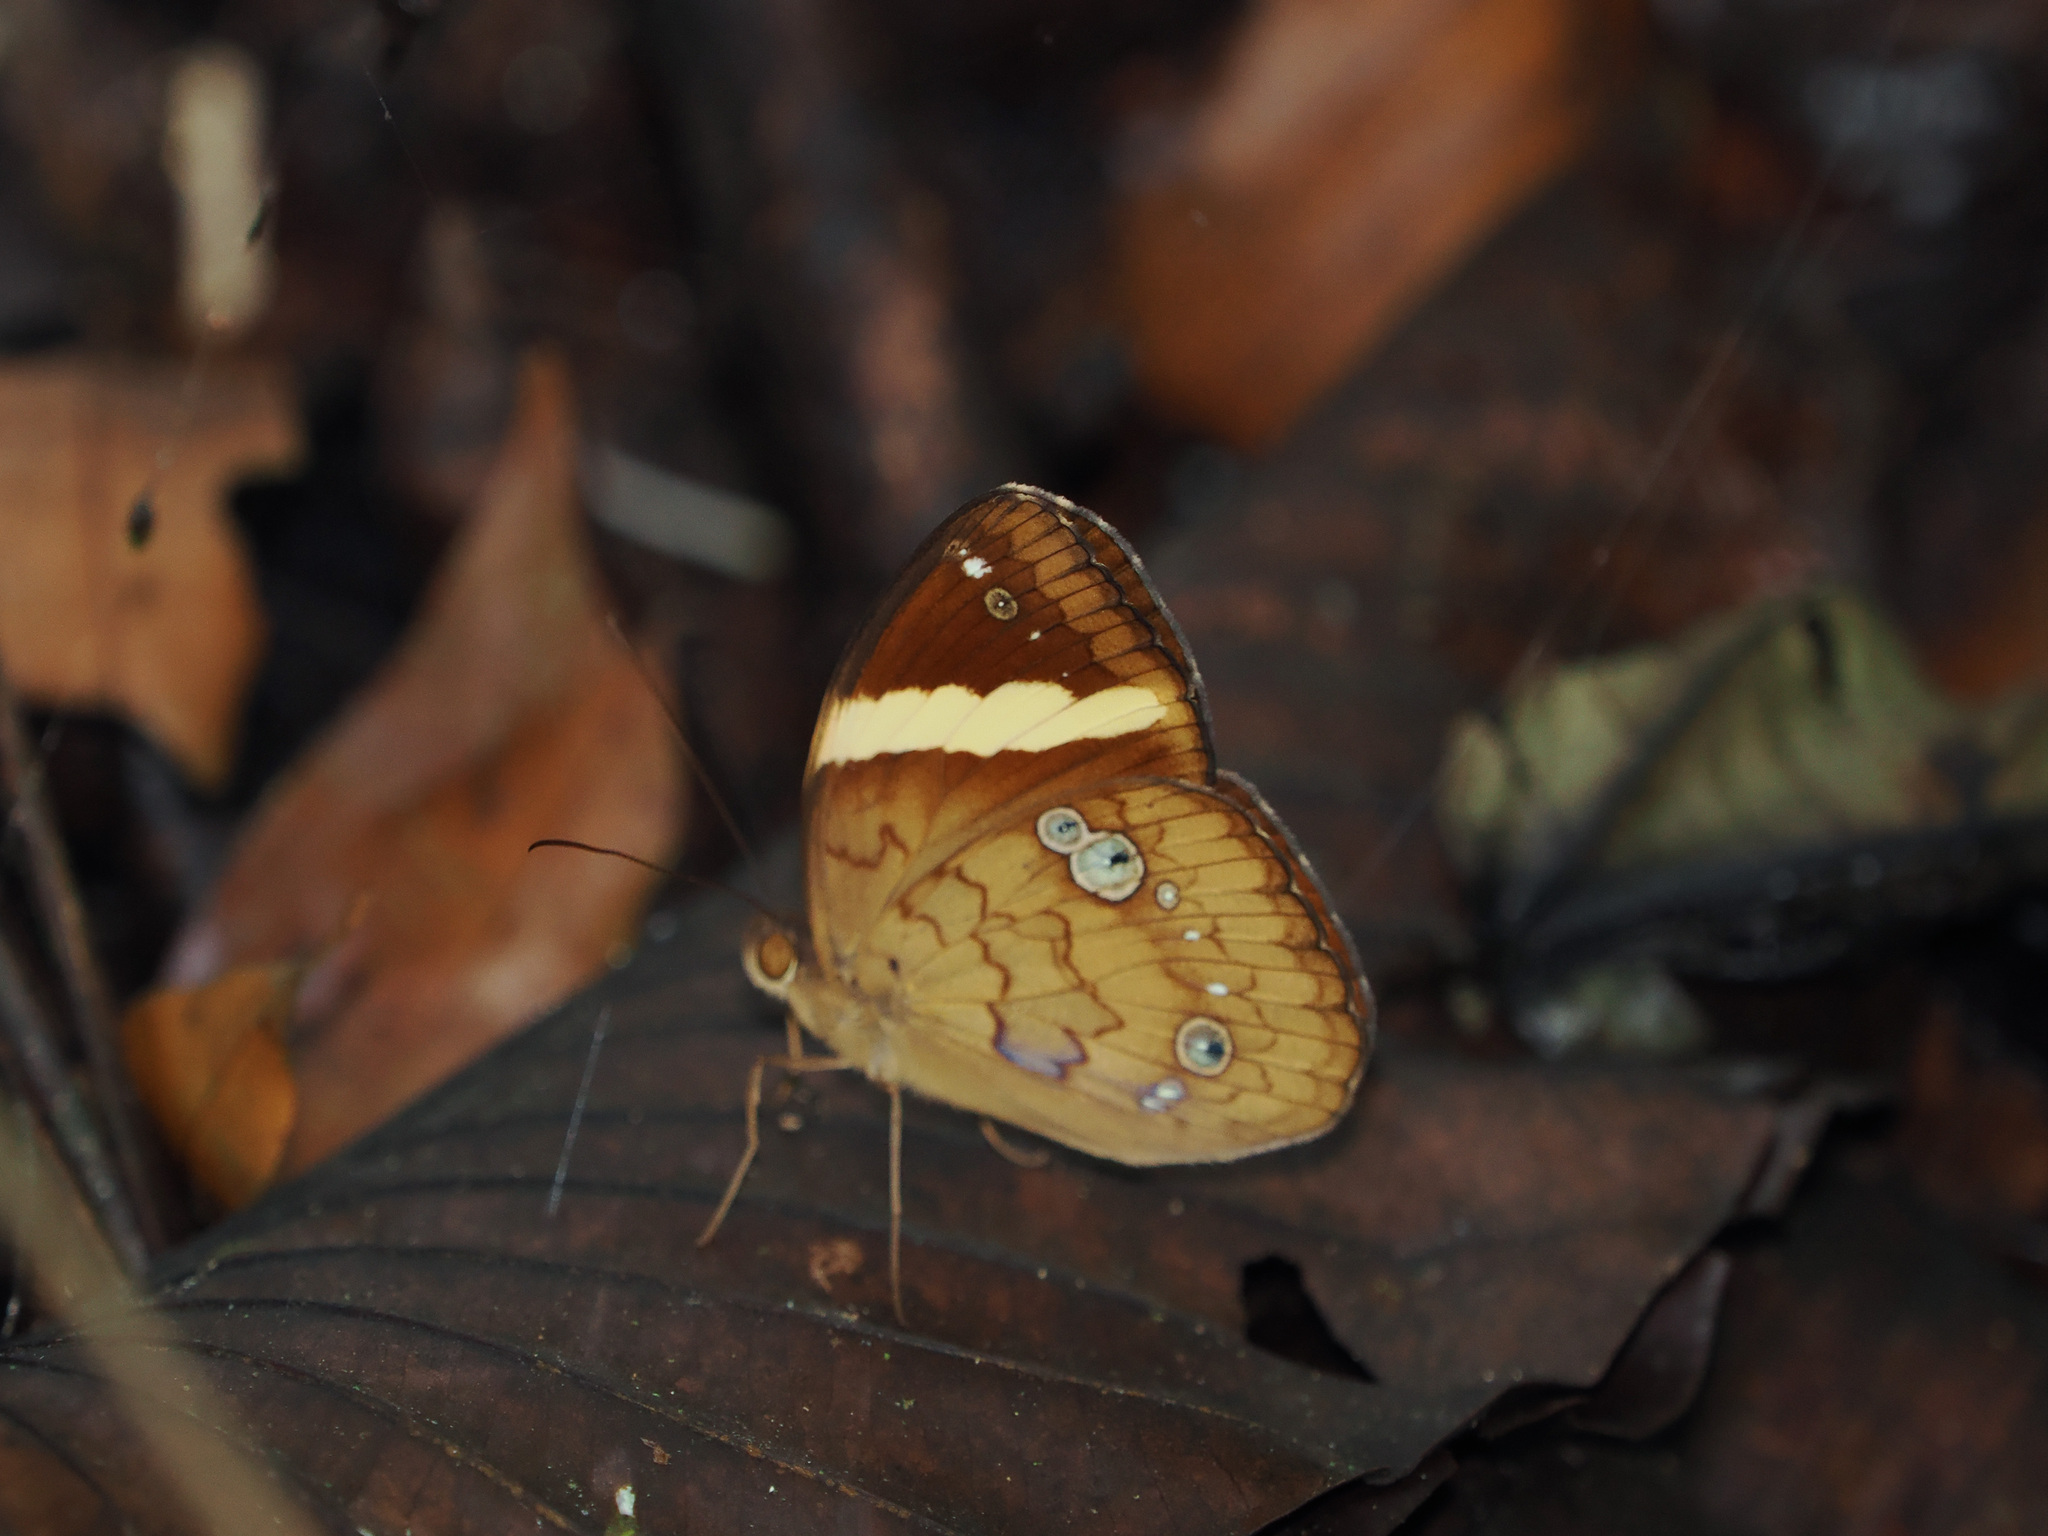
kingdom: Animalia
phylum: Arthropoda
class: Insecta
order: Lepidoptera
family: Nymphalidae
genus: Xanthotaenia
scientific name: Xanthotaenia busiris
